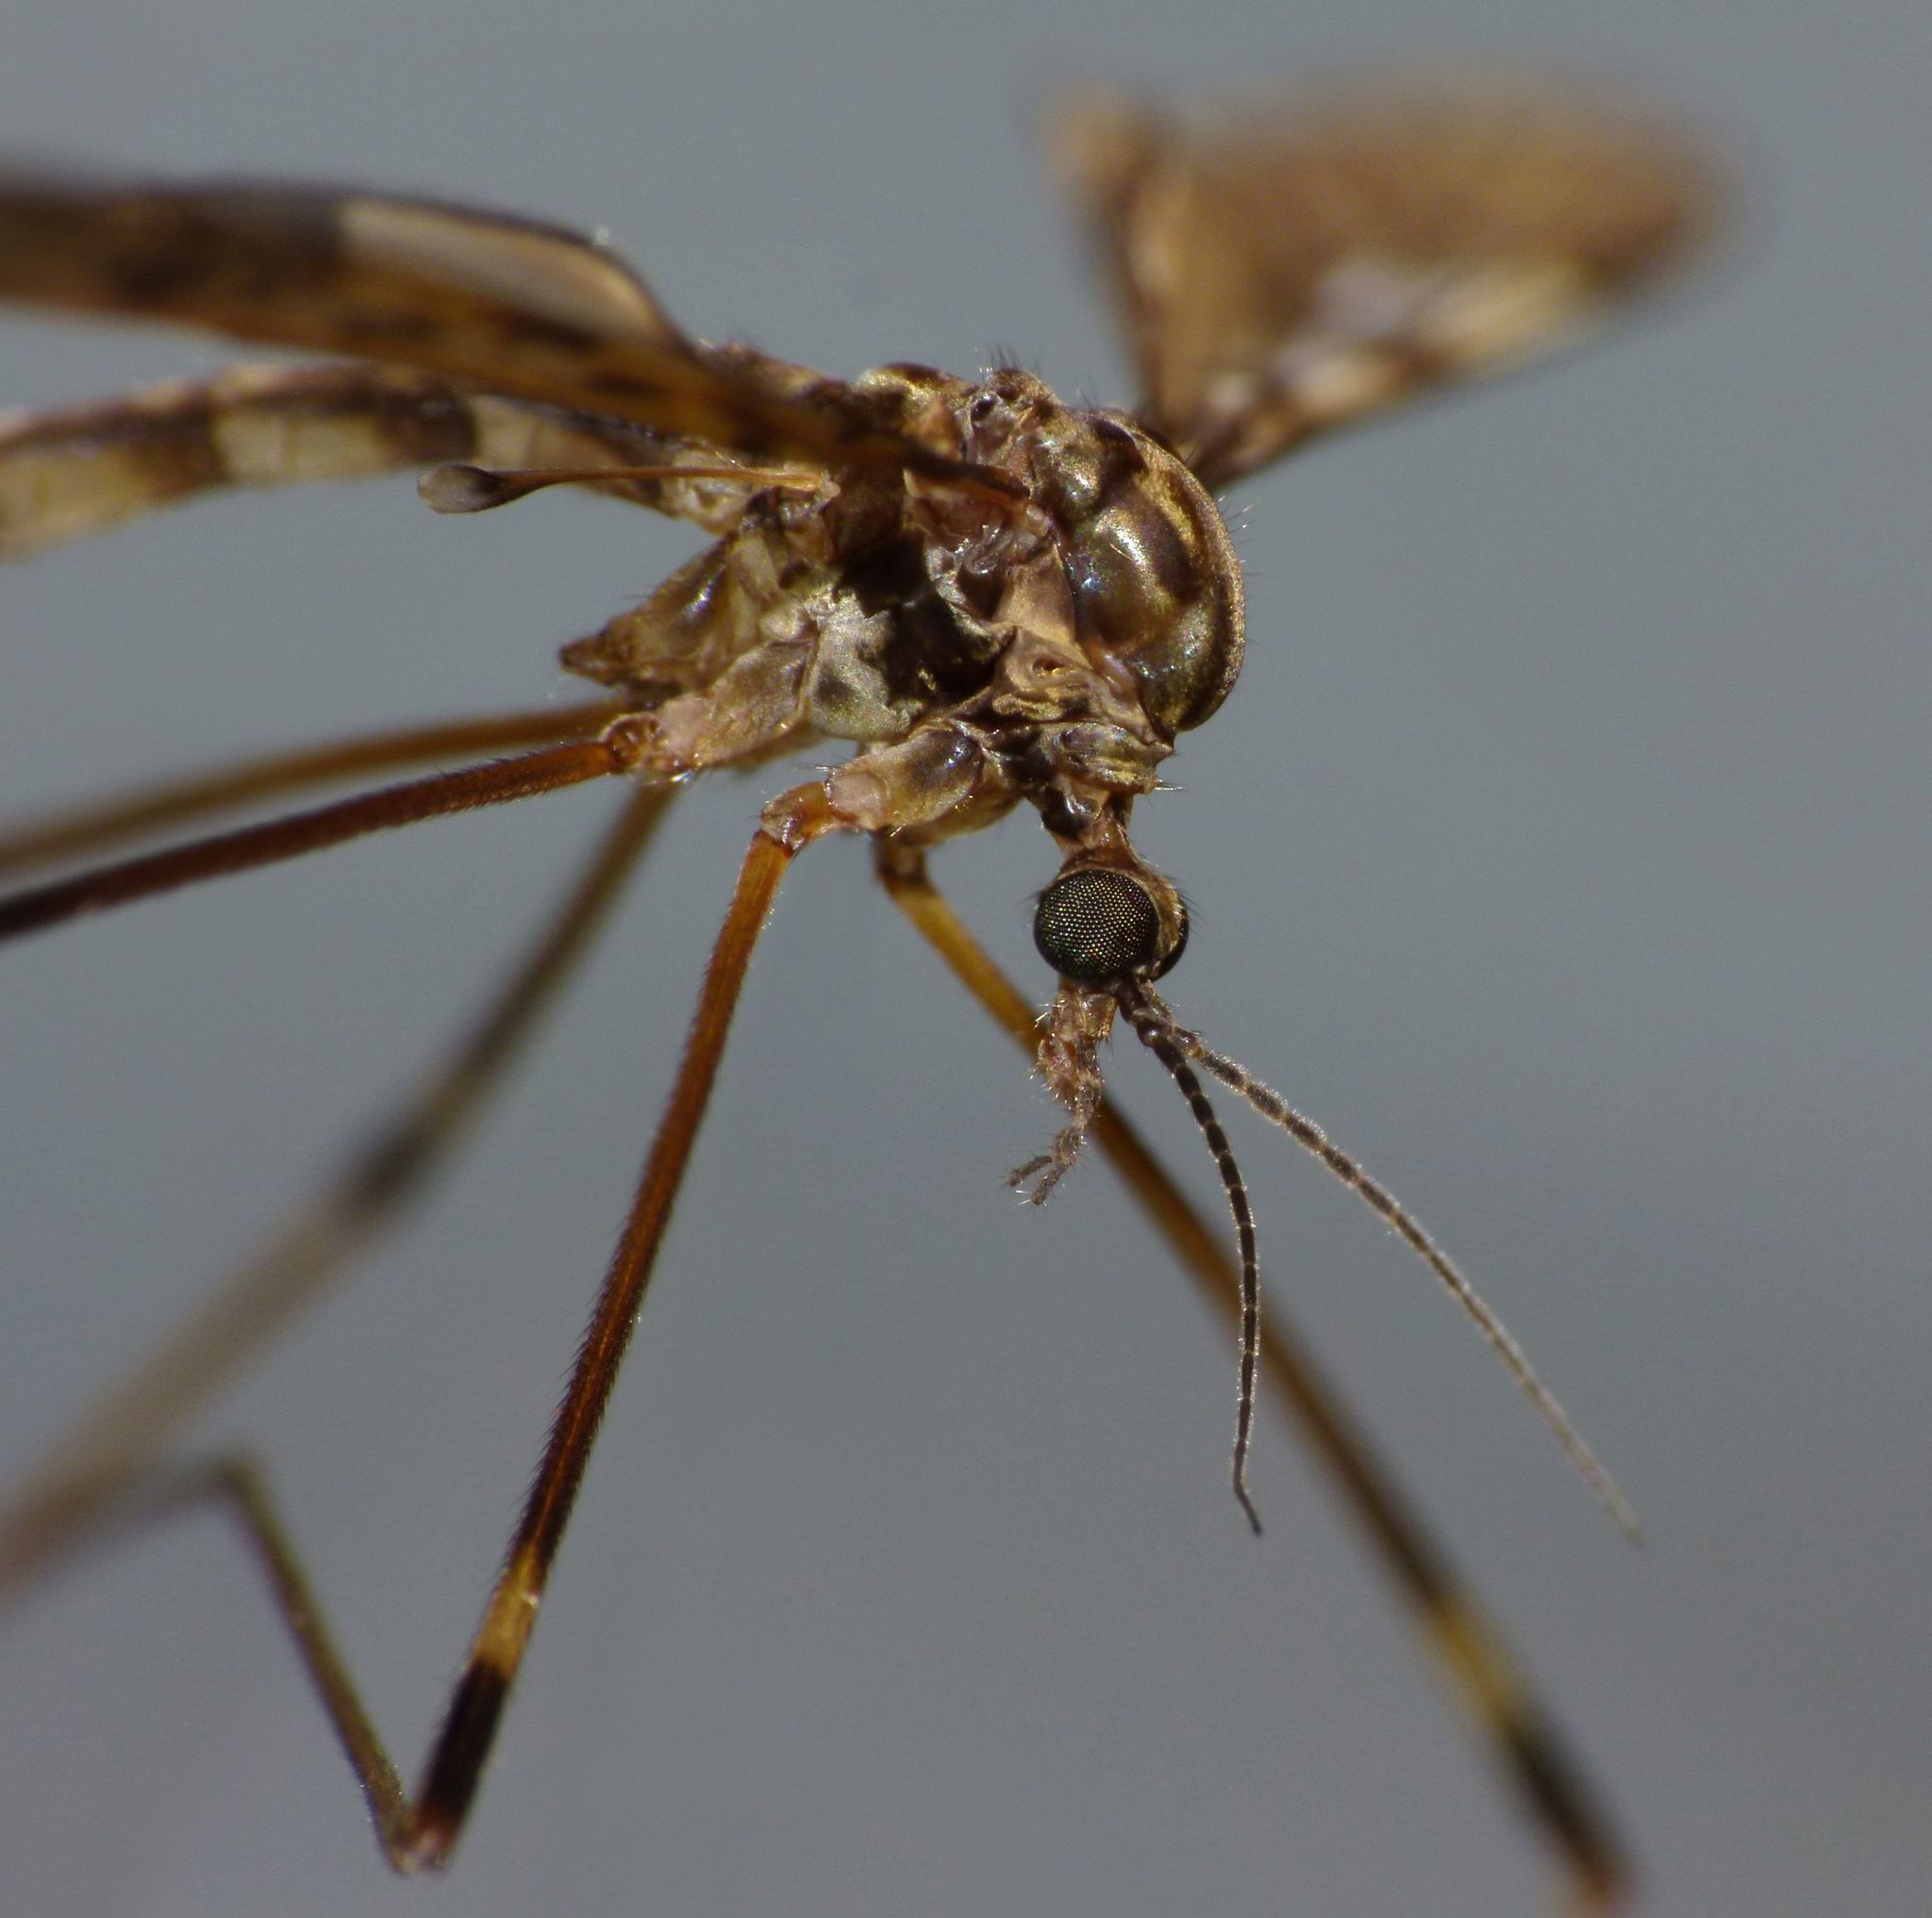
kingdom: Animalia
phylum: Arthropoda
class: Insecta
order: Diptera
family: Limoniidae
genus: Austrolimnophila
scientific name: Austrolimnophila oculata
